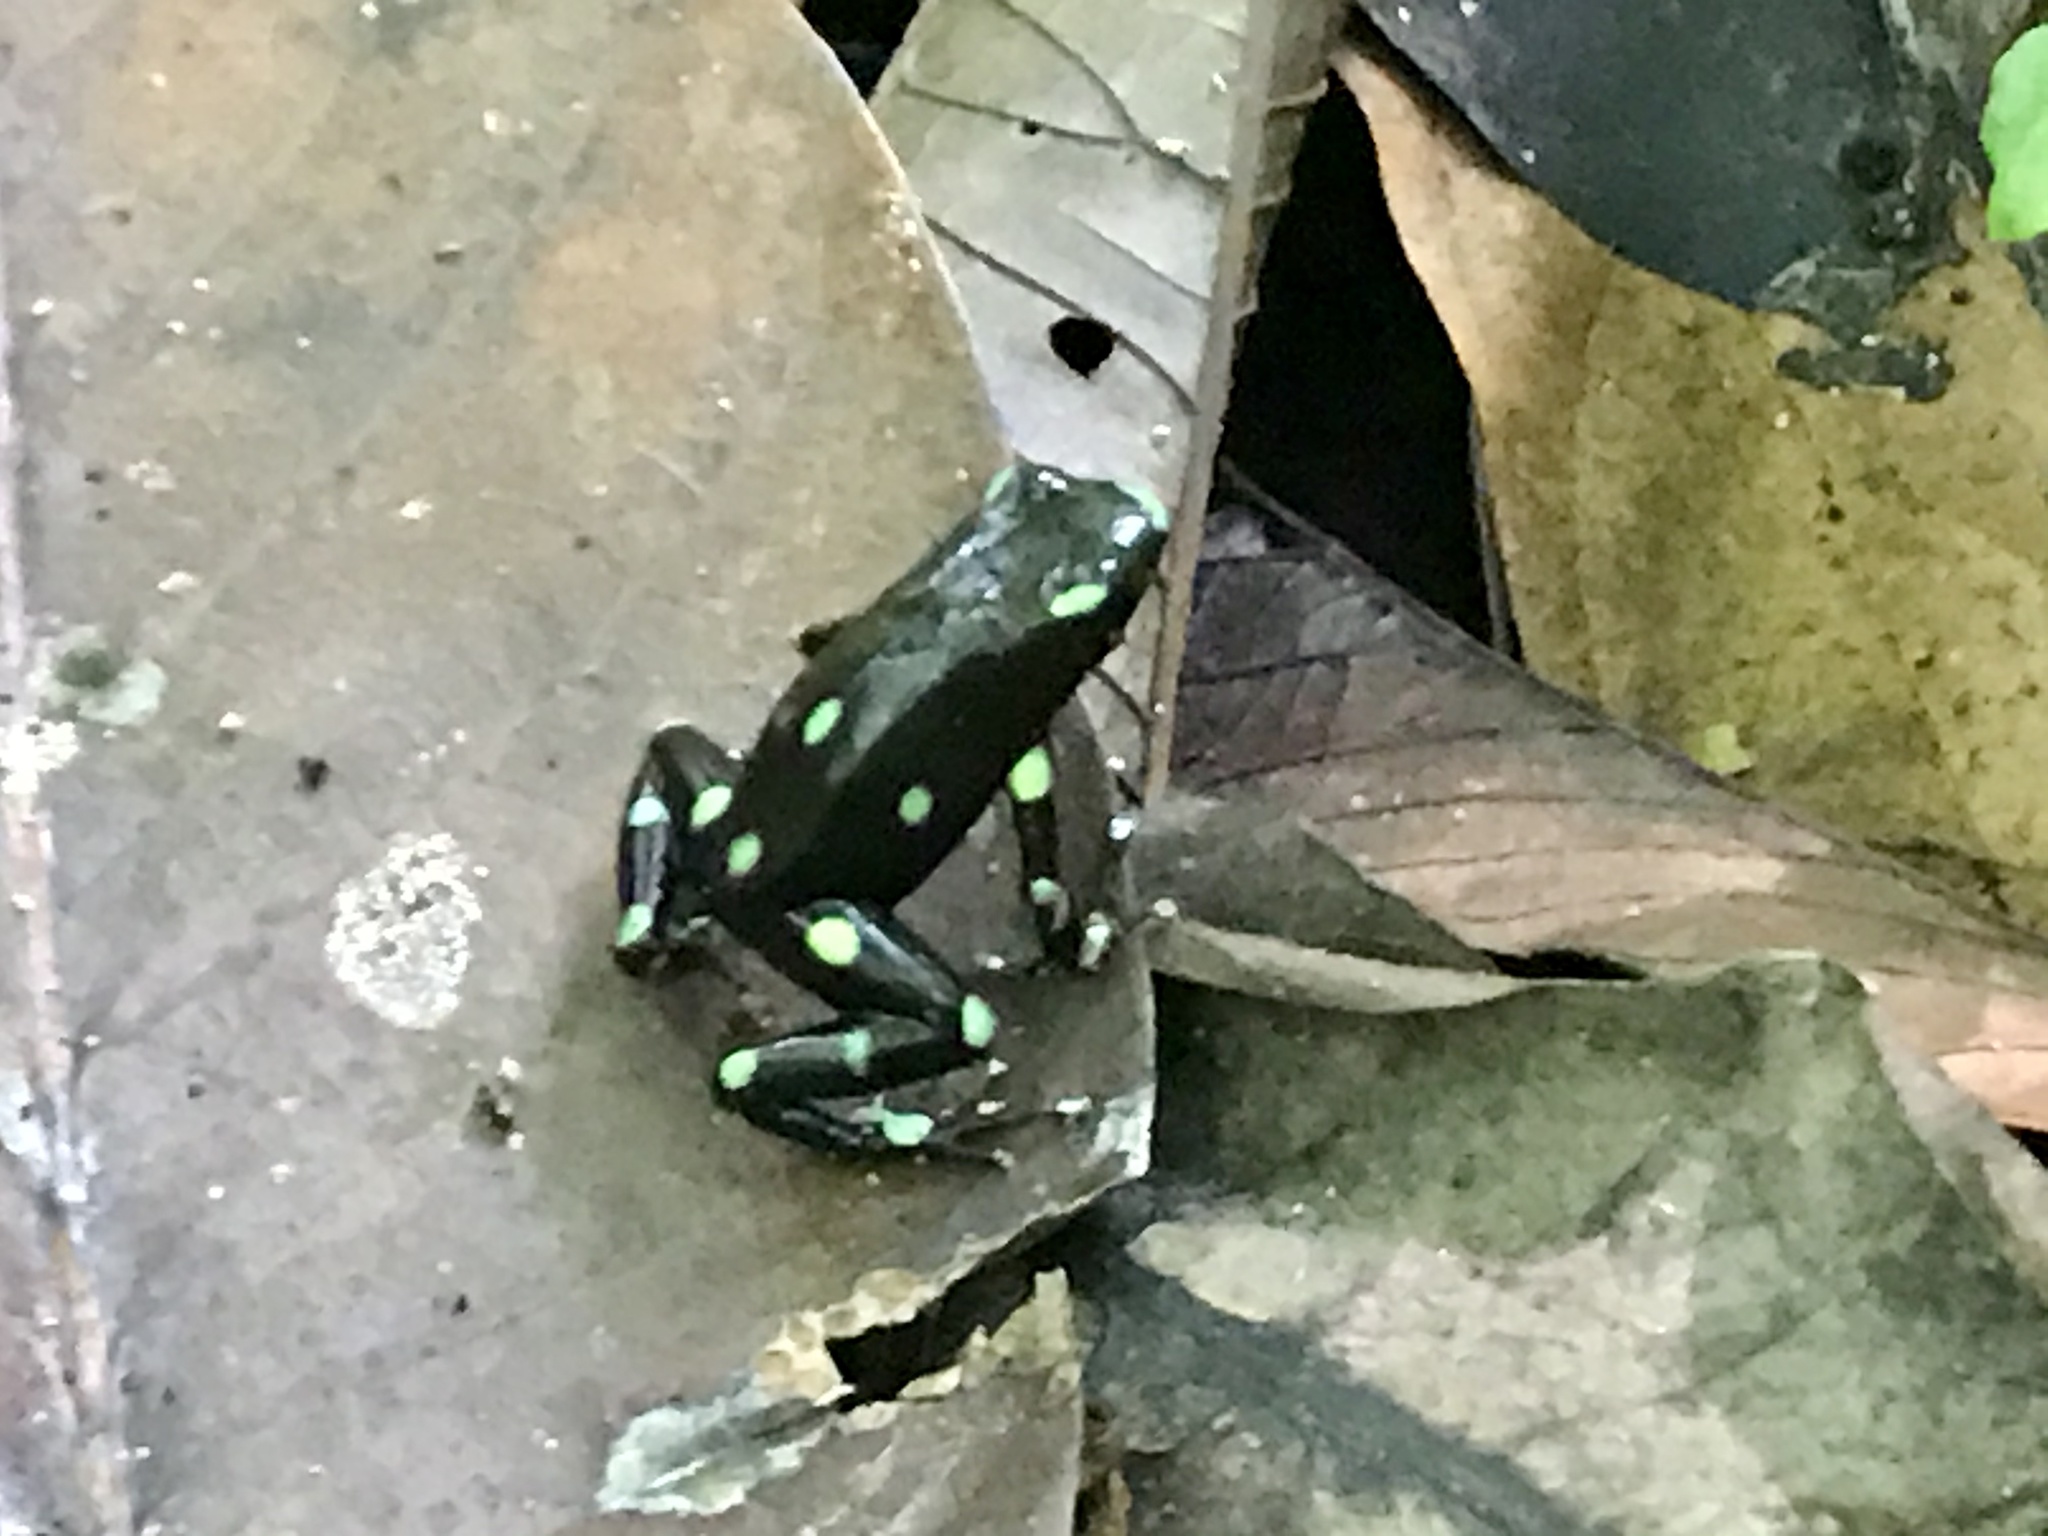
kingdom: Animalia
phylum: Chordata
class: Amphibia
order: Anura
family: Dendrobatidae
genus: Dendrobates
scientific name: Dendrobates auratus
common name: Green and black poison dart frog
